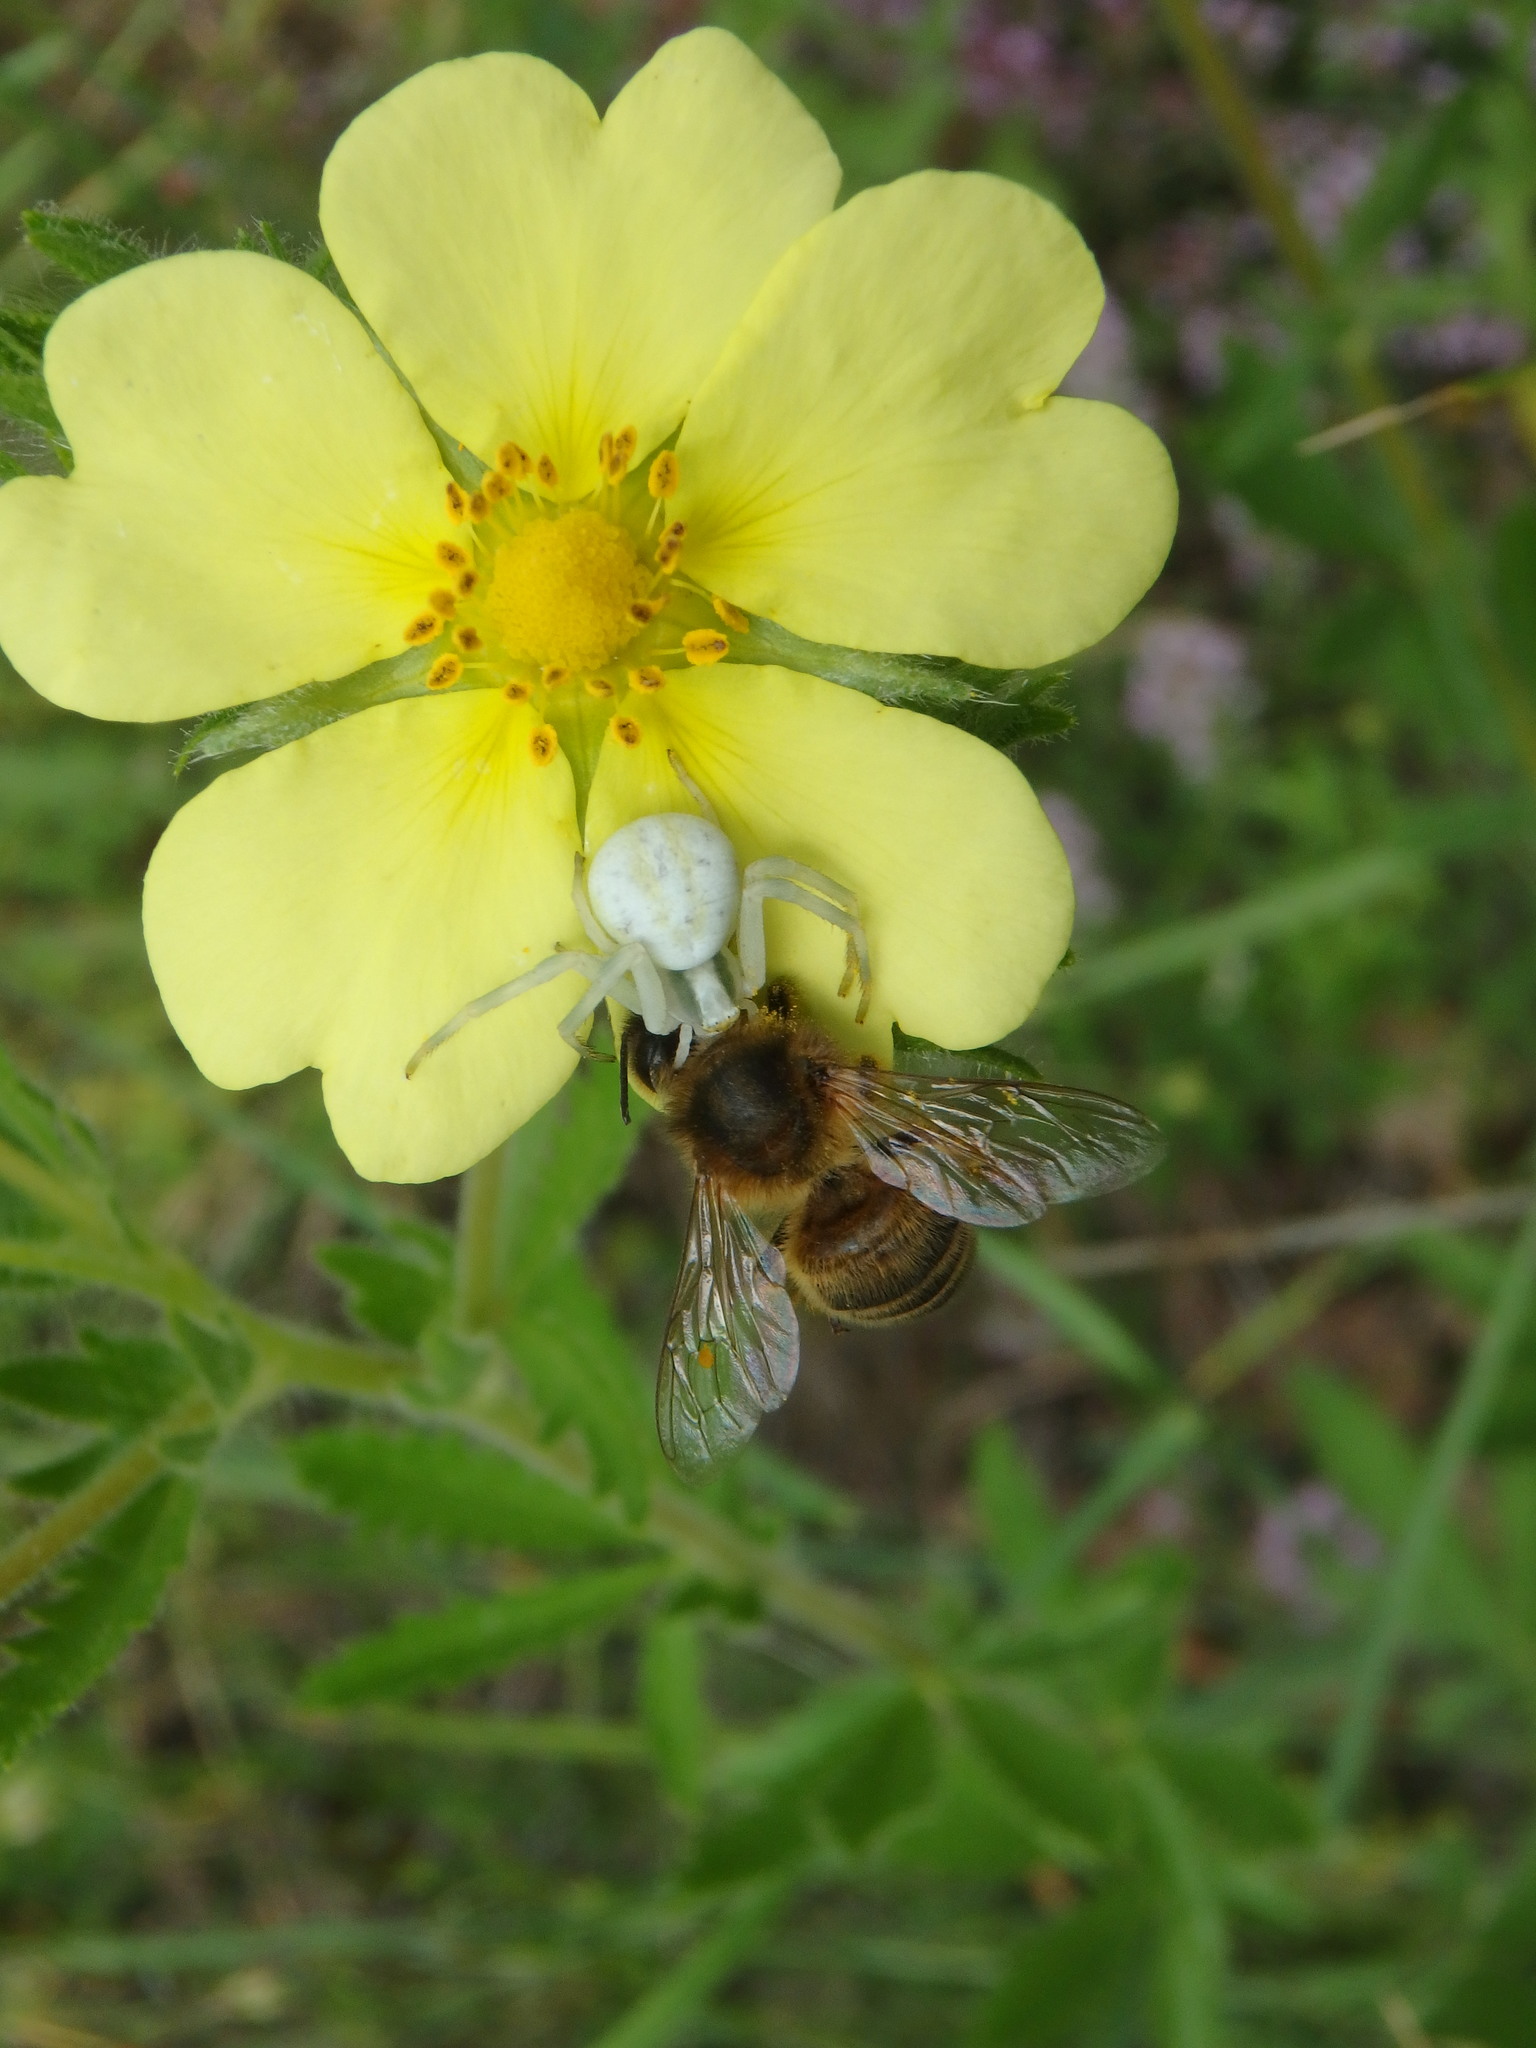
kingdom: Animalia
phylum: Arthropoda
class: Insecta
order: Hymenoptera
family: Apidae
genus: Apis
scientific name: Apis mellifera
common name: Honey bee
